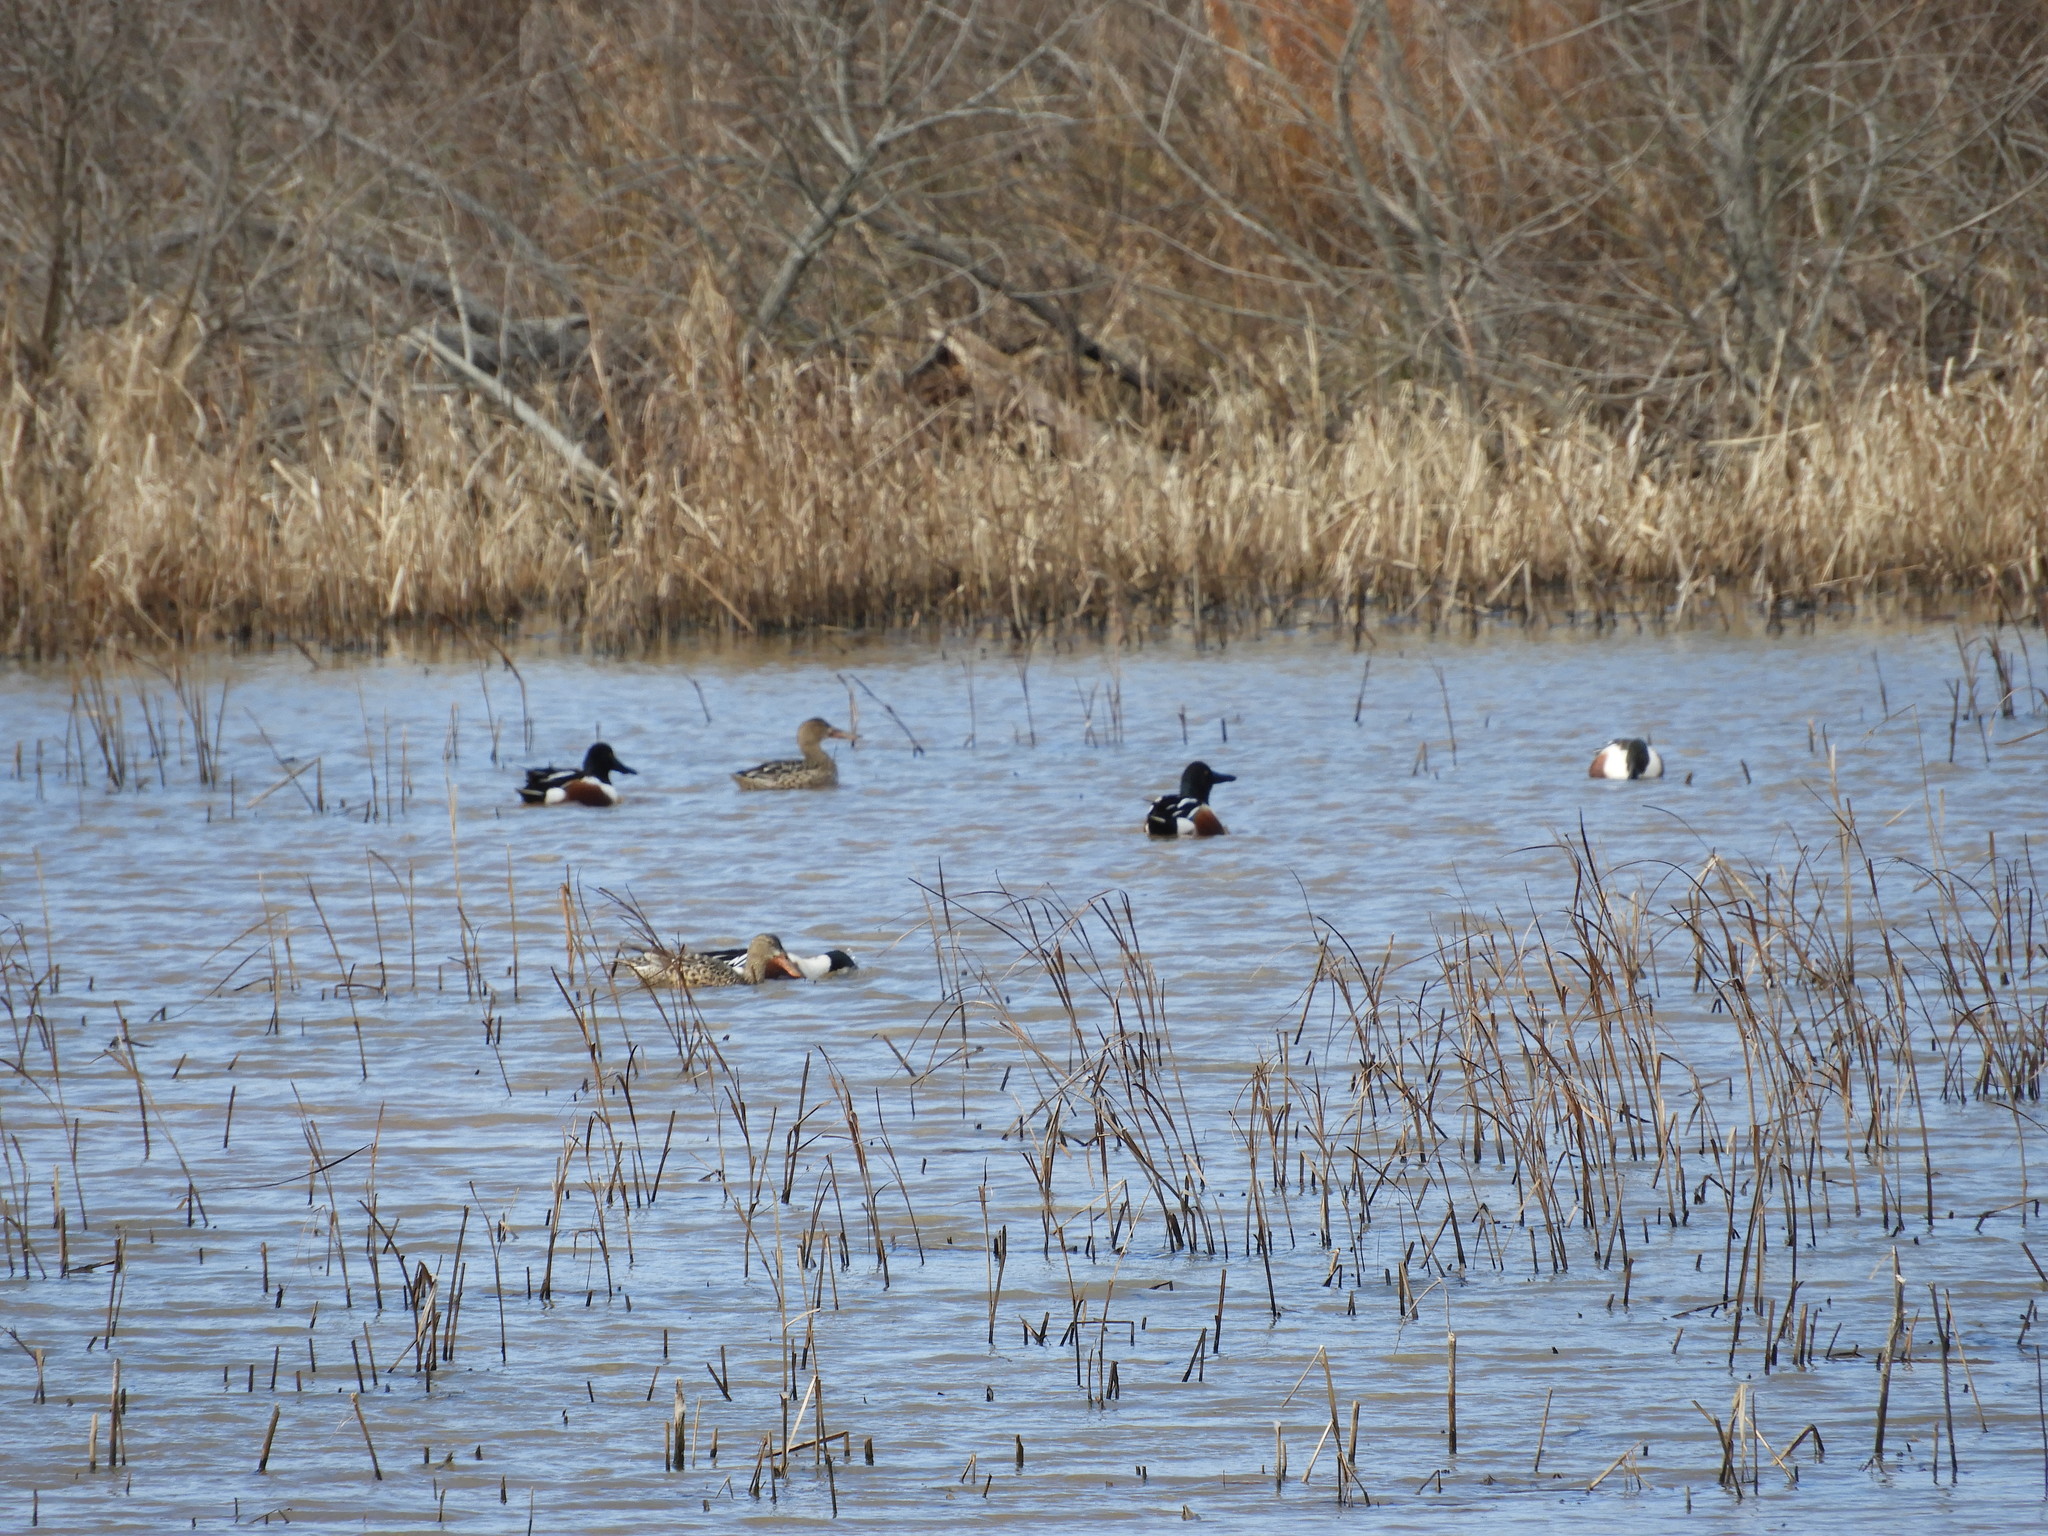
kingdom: Animalia
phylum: Chordata
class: Aves
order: Anseriformes
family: Anatidae
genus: Spatula
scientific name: Spatula clypeata
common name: Northern shoveler
